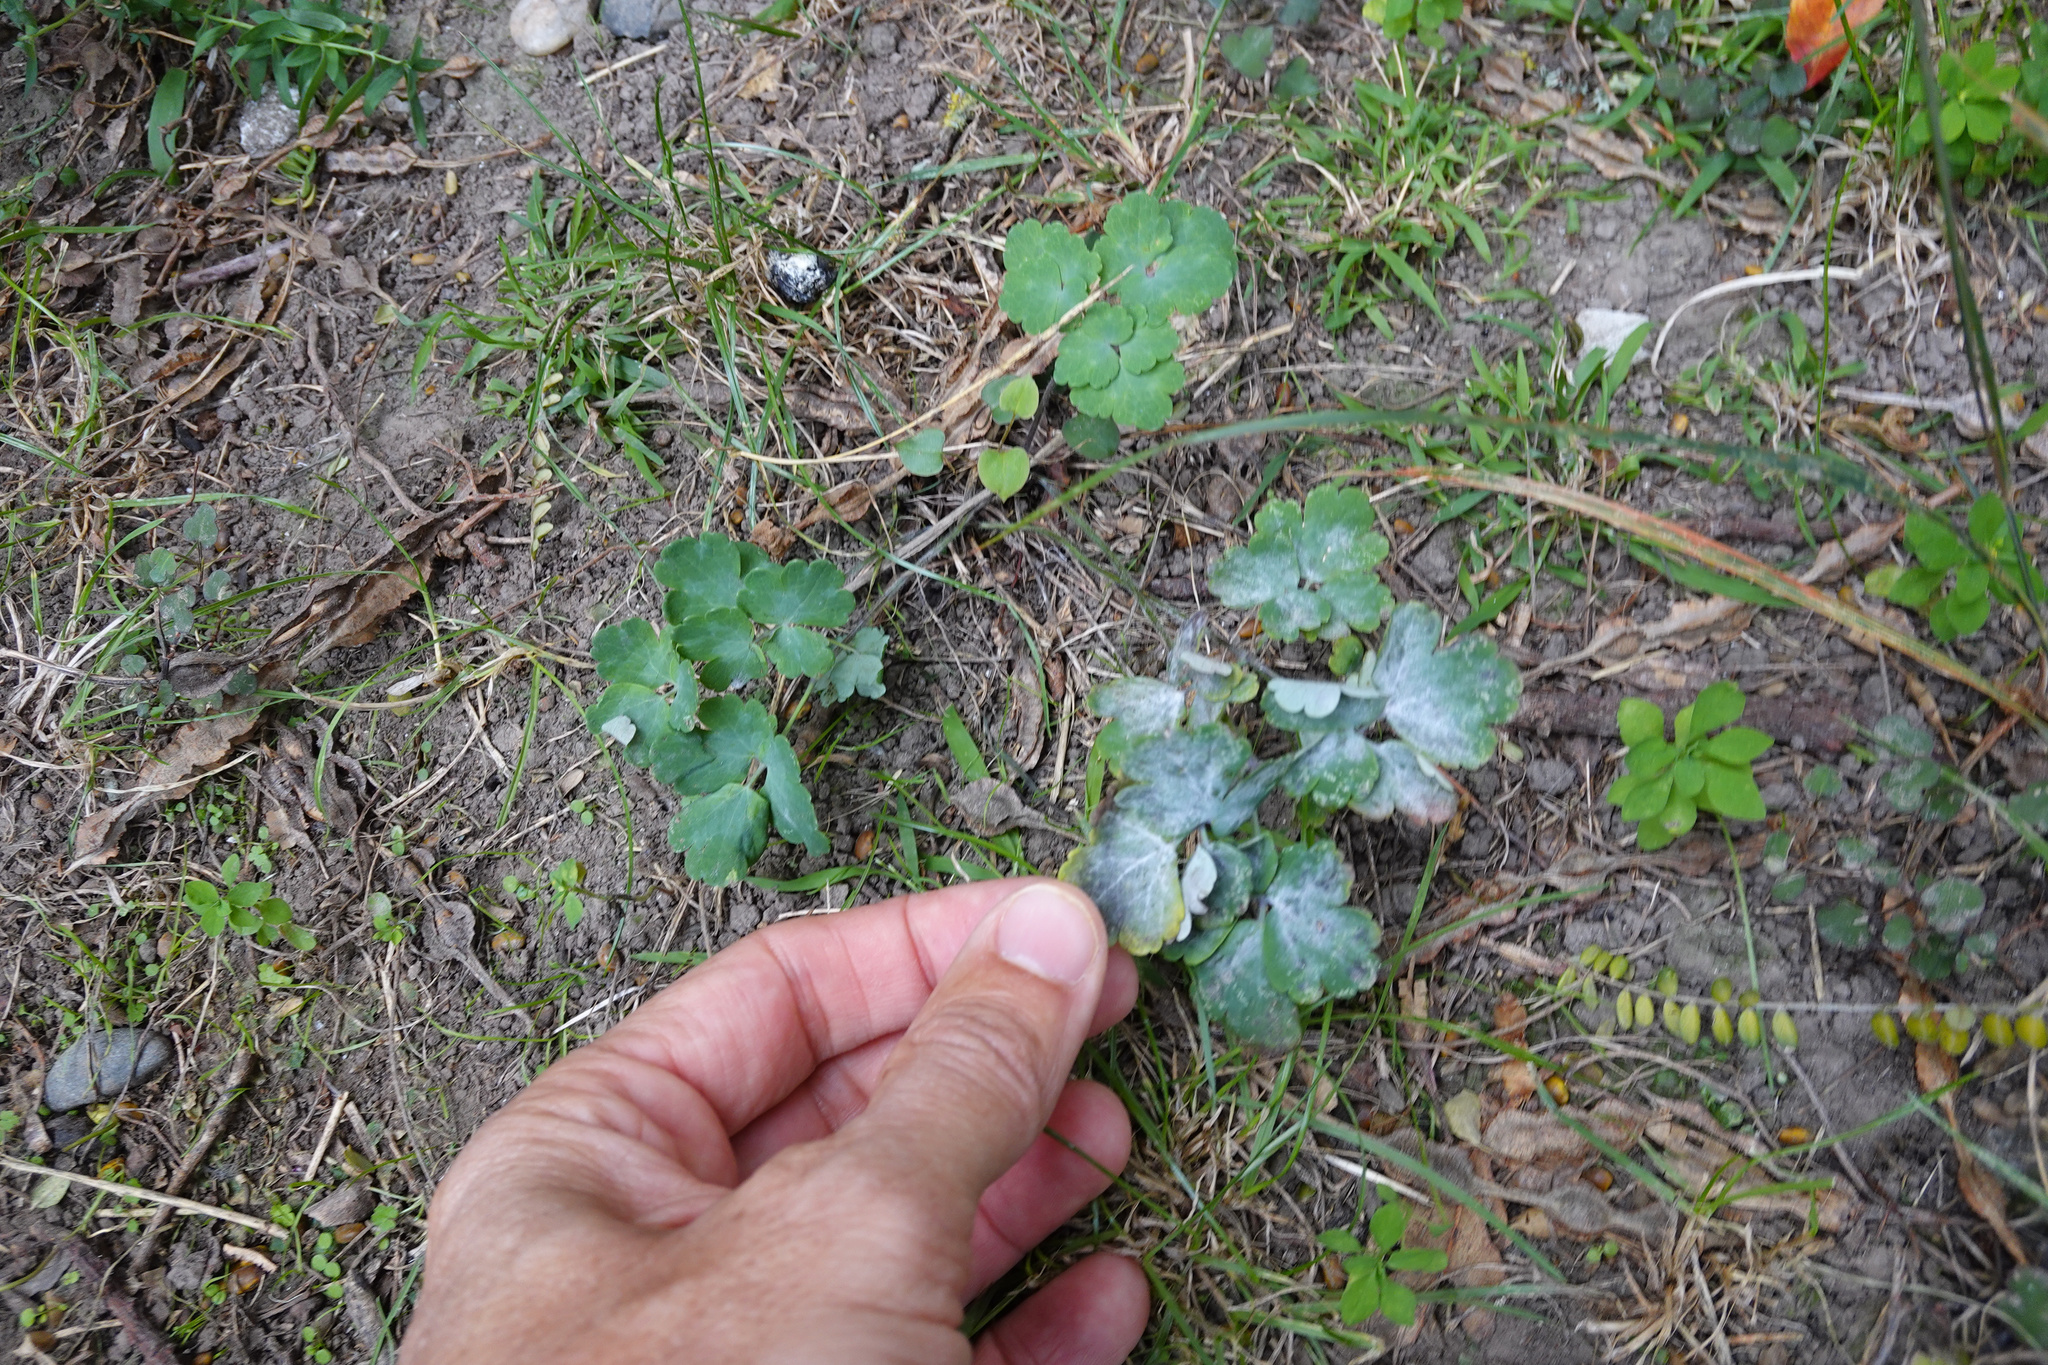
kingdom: Fungi
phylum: Ascomycota
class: Leotiomycetes
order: Helotiales
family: Erysiphaceae
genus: Erysiphe
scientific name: Erysiphe aquilegiae
